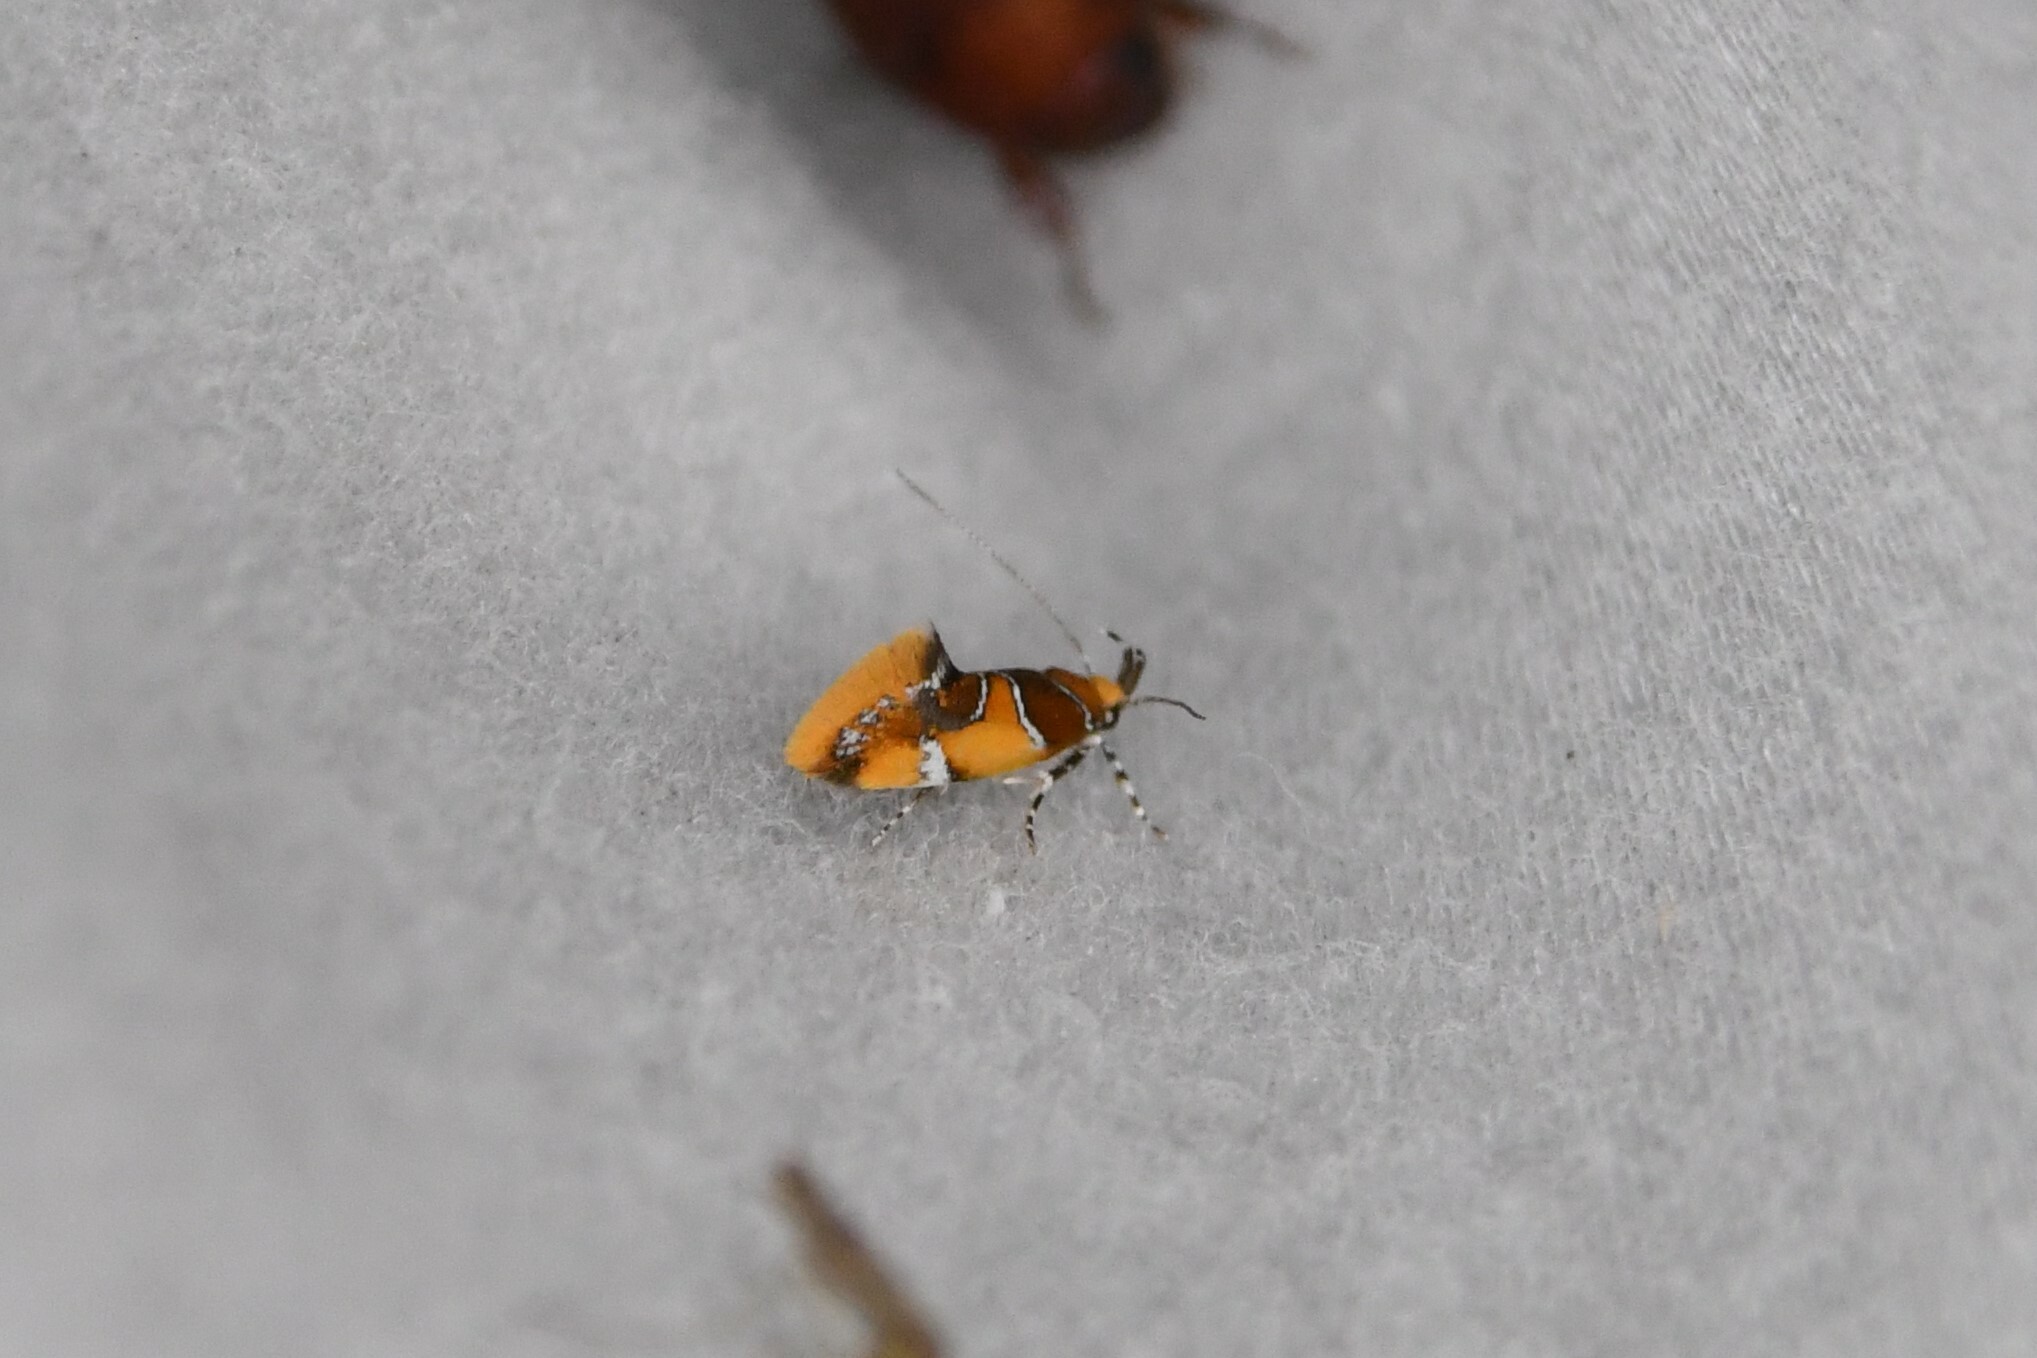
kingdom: Animalia
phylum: Arthropoda
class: Insecta
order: Lepidoptera
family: Oecophoridae
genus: Callima
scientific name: Callima argenticinctella
